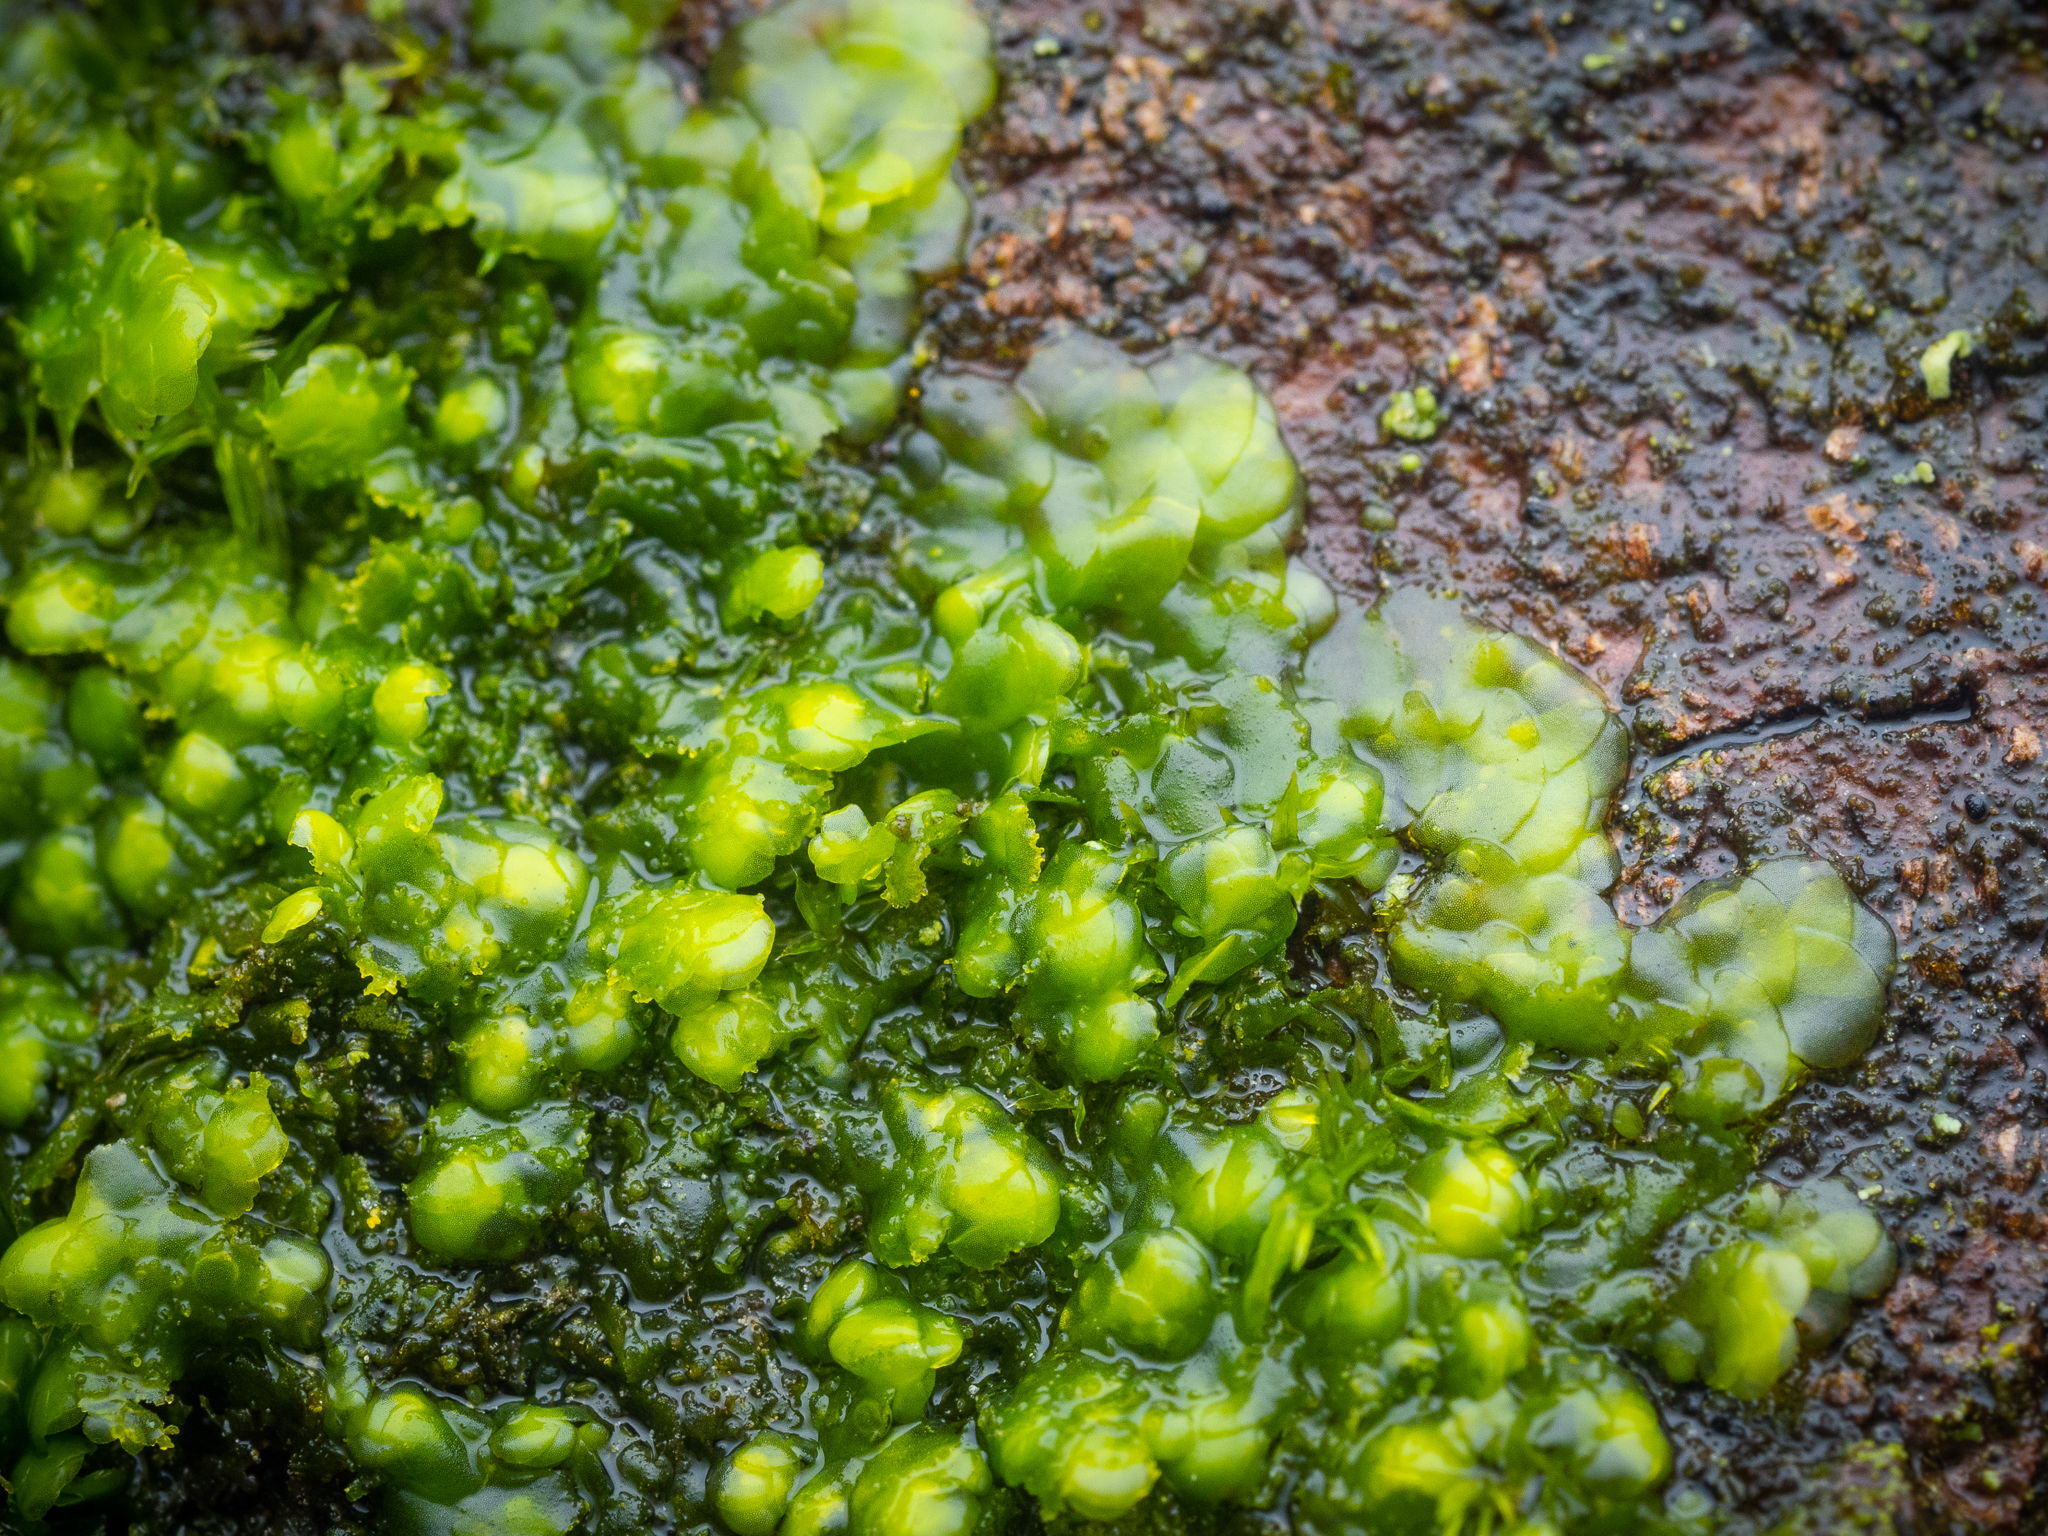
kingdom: Plantae
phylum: Marchantiophyta
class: Jungermanniopsida
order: Porellales
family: Radulaceae
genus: Radula
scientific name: Radula complanata
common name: Flat-leaved scalewort
